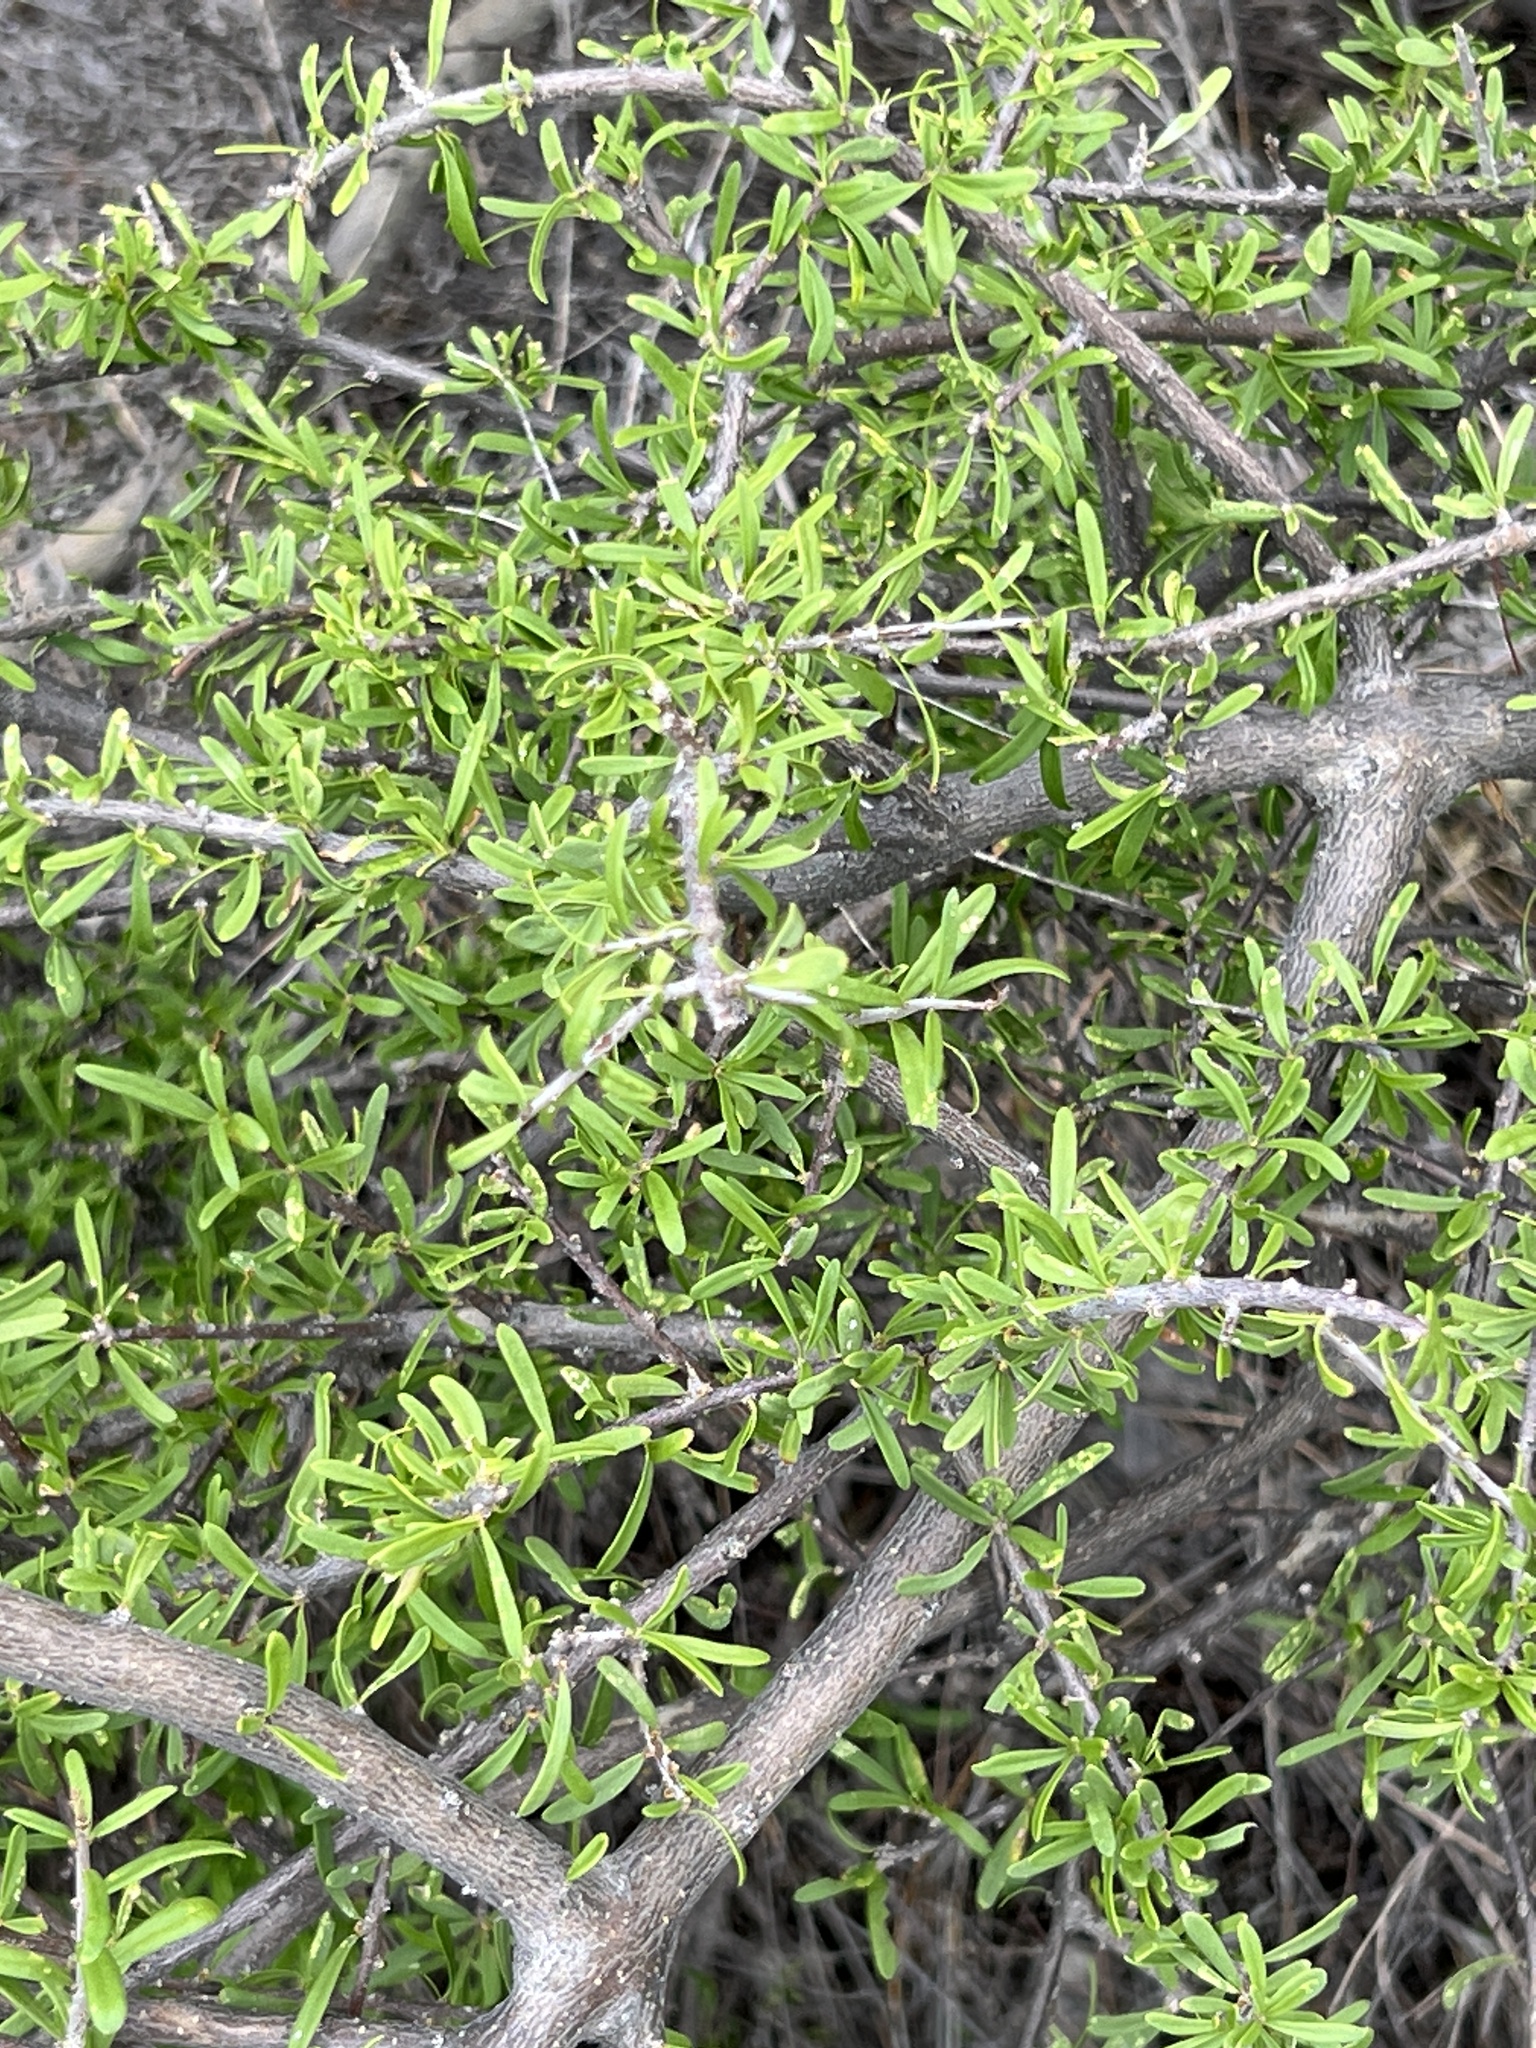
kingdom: Plantae
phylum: Tracheophyta
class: Magnoliopsida
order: Lamiales
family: Oleaceae
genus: Forestiera
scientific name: Forestiera angustifolia
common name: Elbowbush
